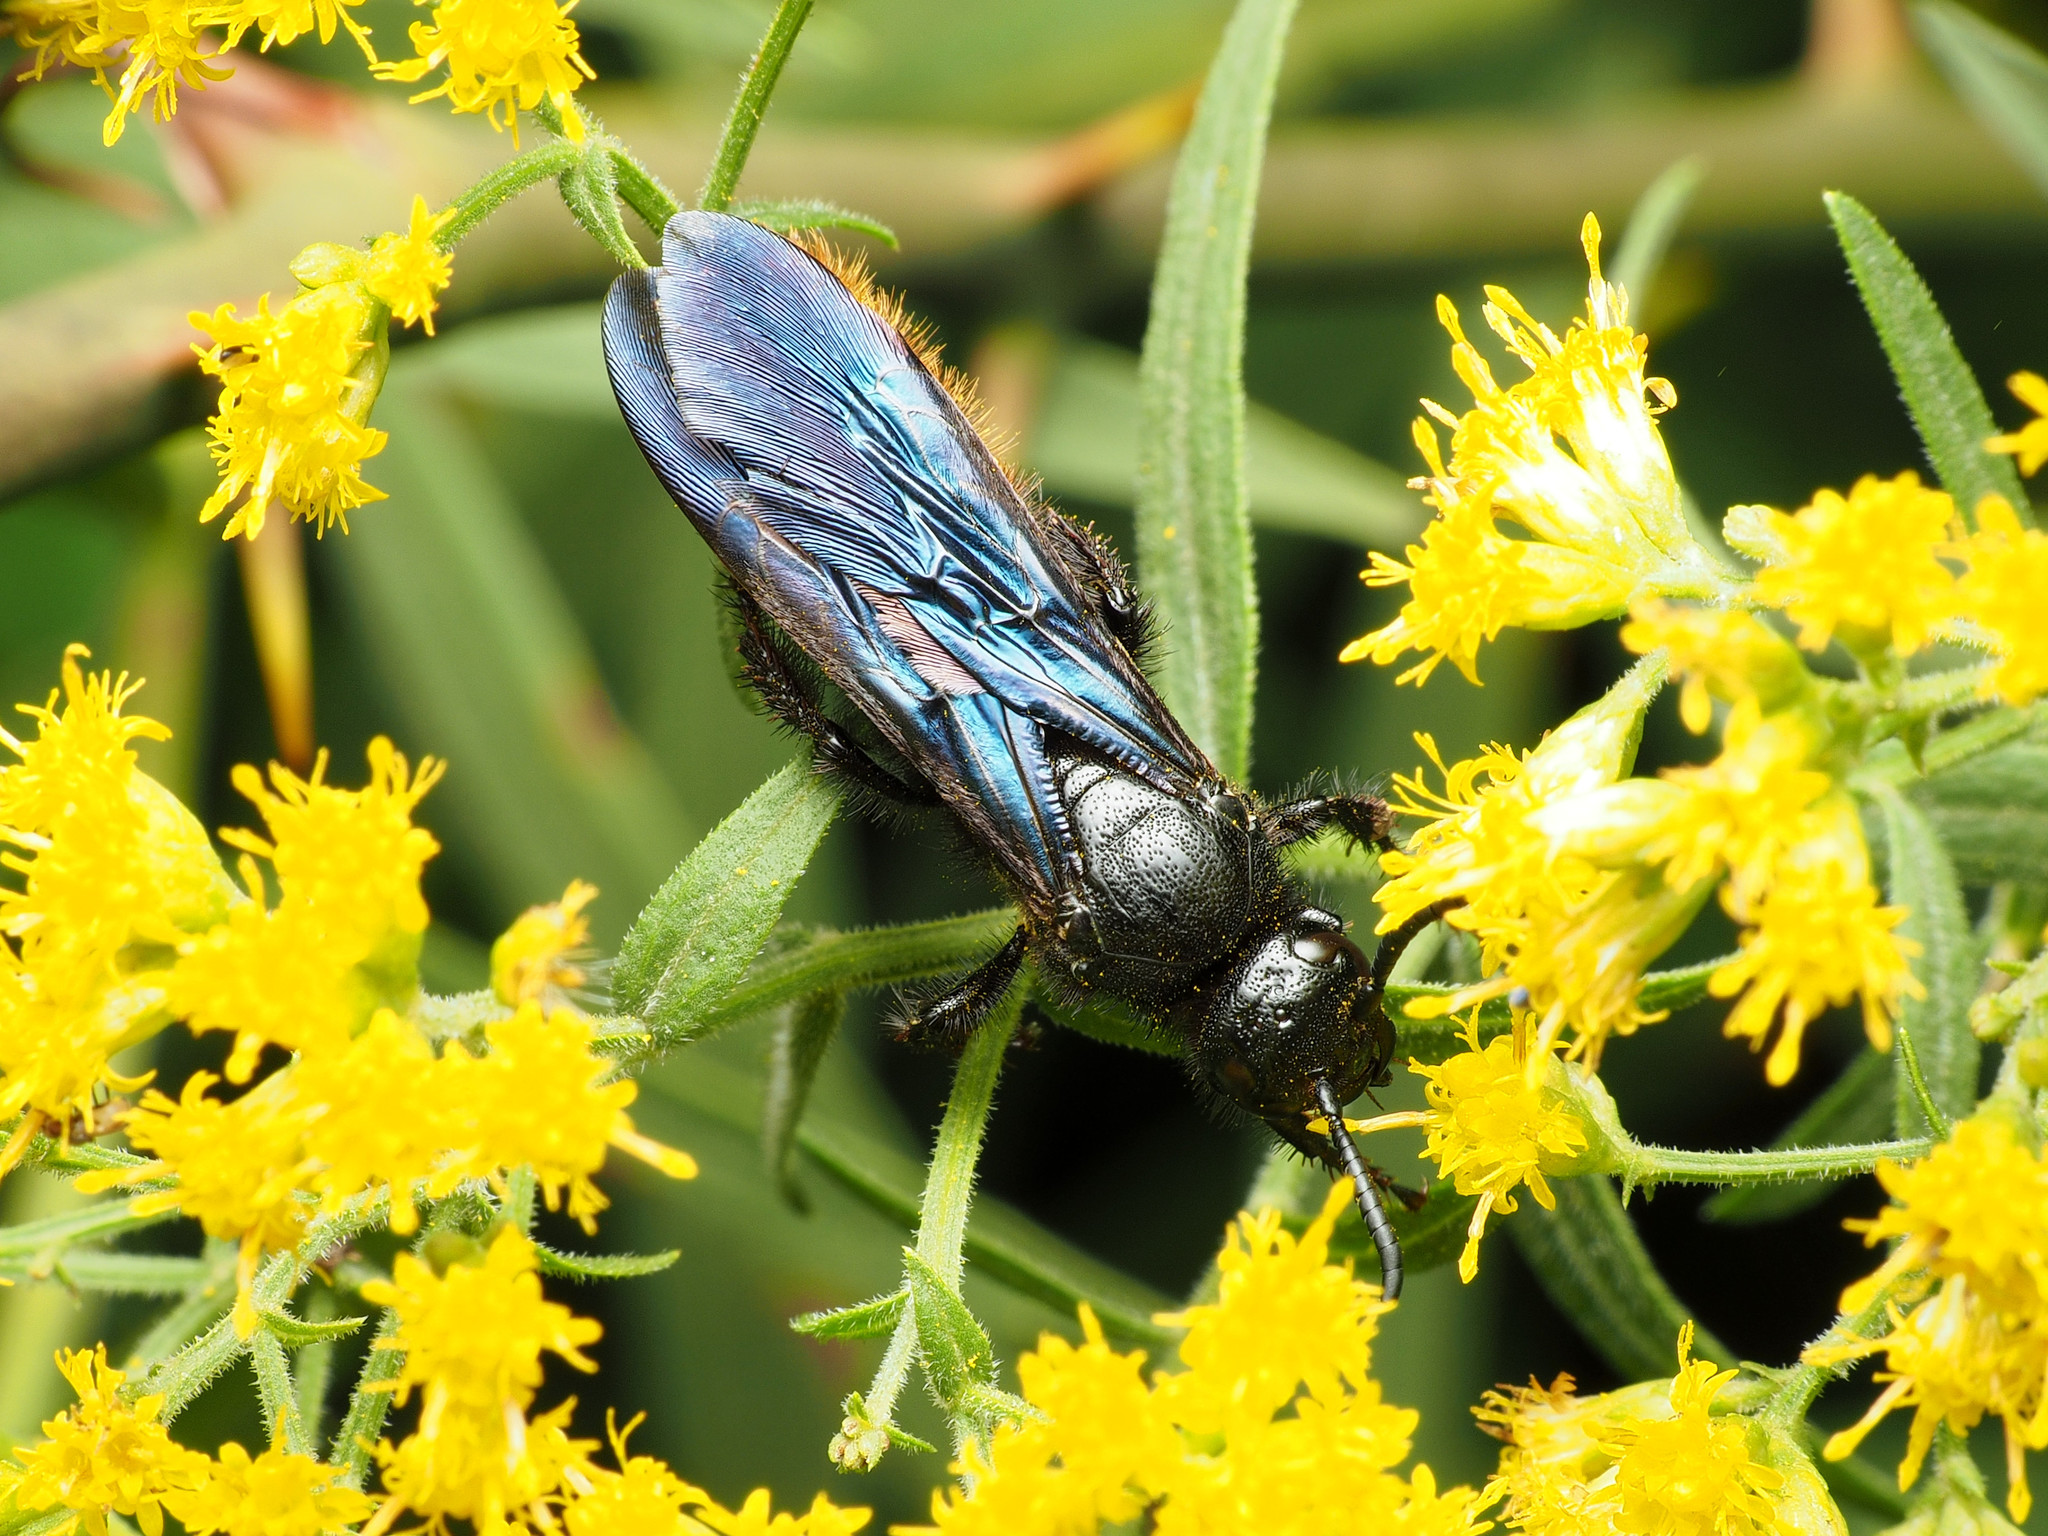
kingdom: Animalia
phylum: Arthropoda
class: Insecta
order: Hymenoptera
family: Scoliidae
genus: Scolia
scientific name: Scolia dubia
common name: Blue-winged scoliid wasp
